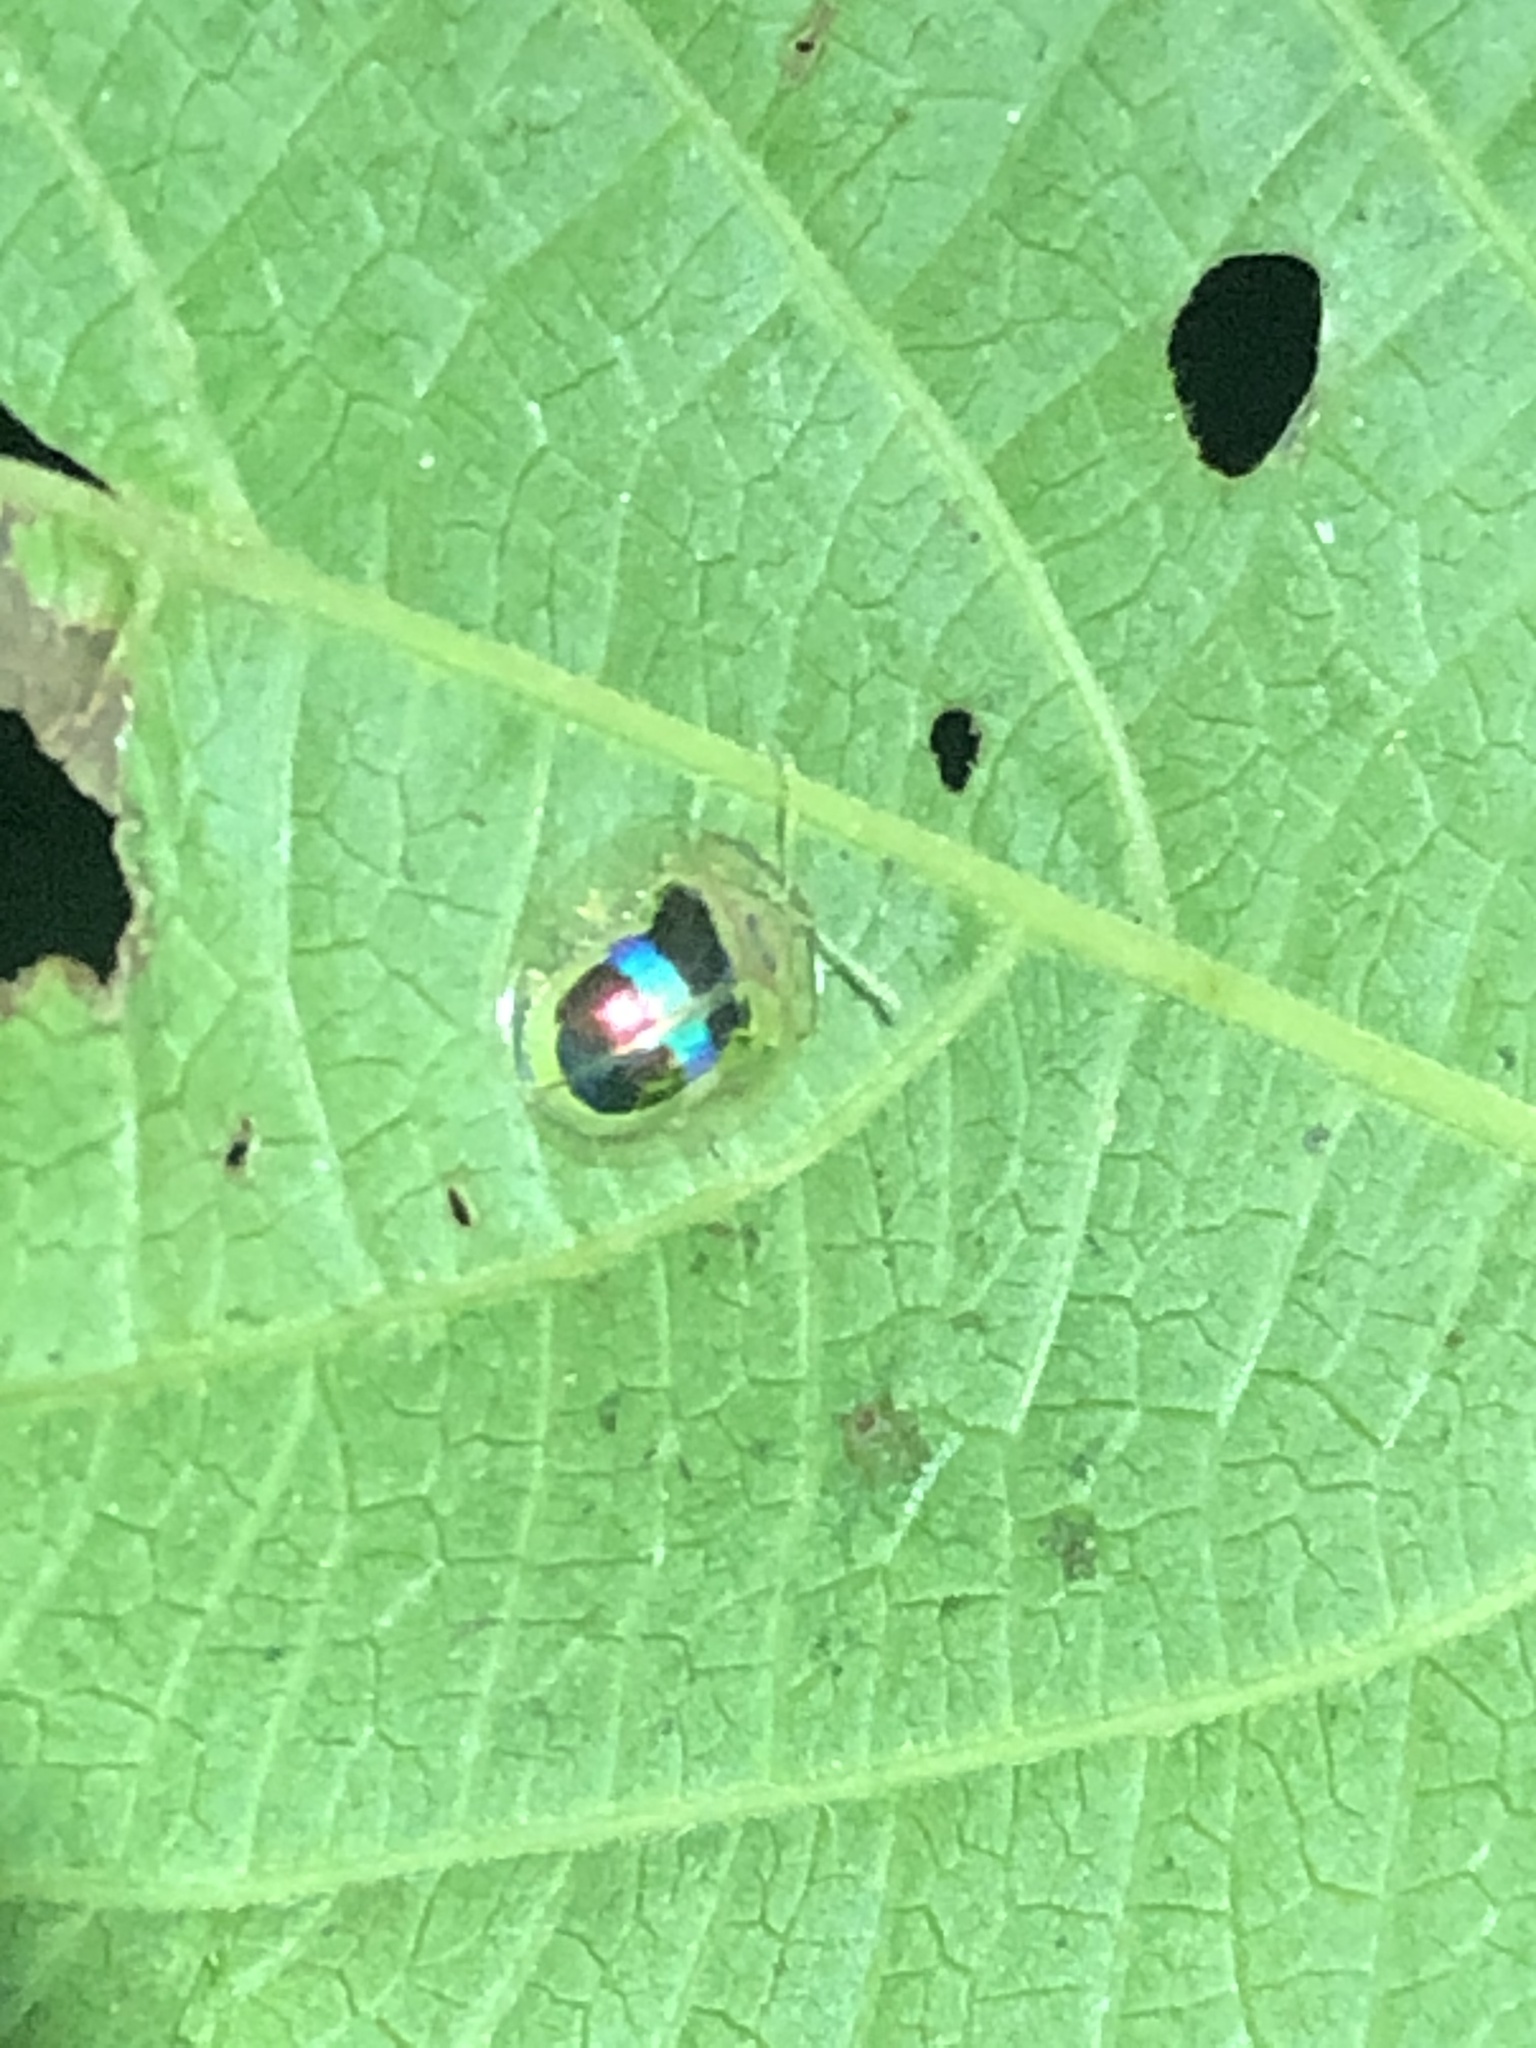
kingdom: Animalia
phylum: Arthropoda
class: Insecta
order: Coleoptera
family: Chrysomelidae
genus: Charidotella
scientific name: Charidotella bifasciata
